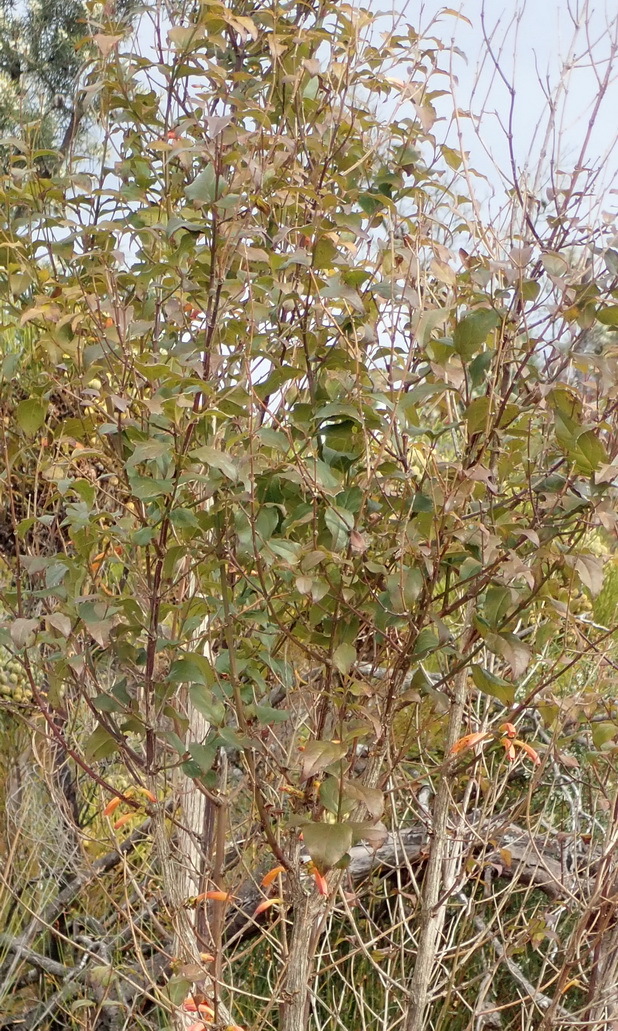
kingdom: Plantae
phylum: Tracheophyta
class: Magnoliopsida
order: Lamiales
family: Stilbaceae
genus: Halleria
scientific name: Halleria lucida
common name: Tree fuschia
